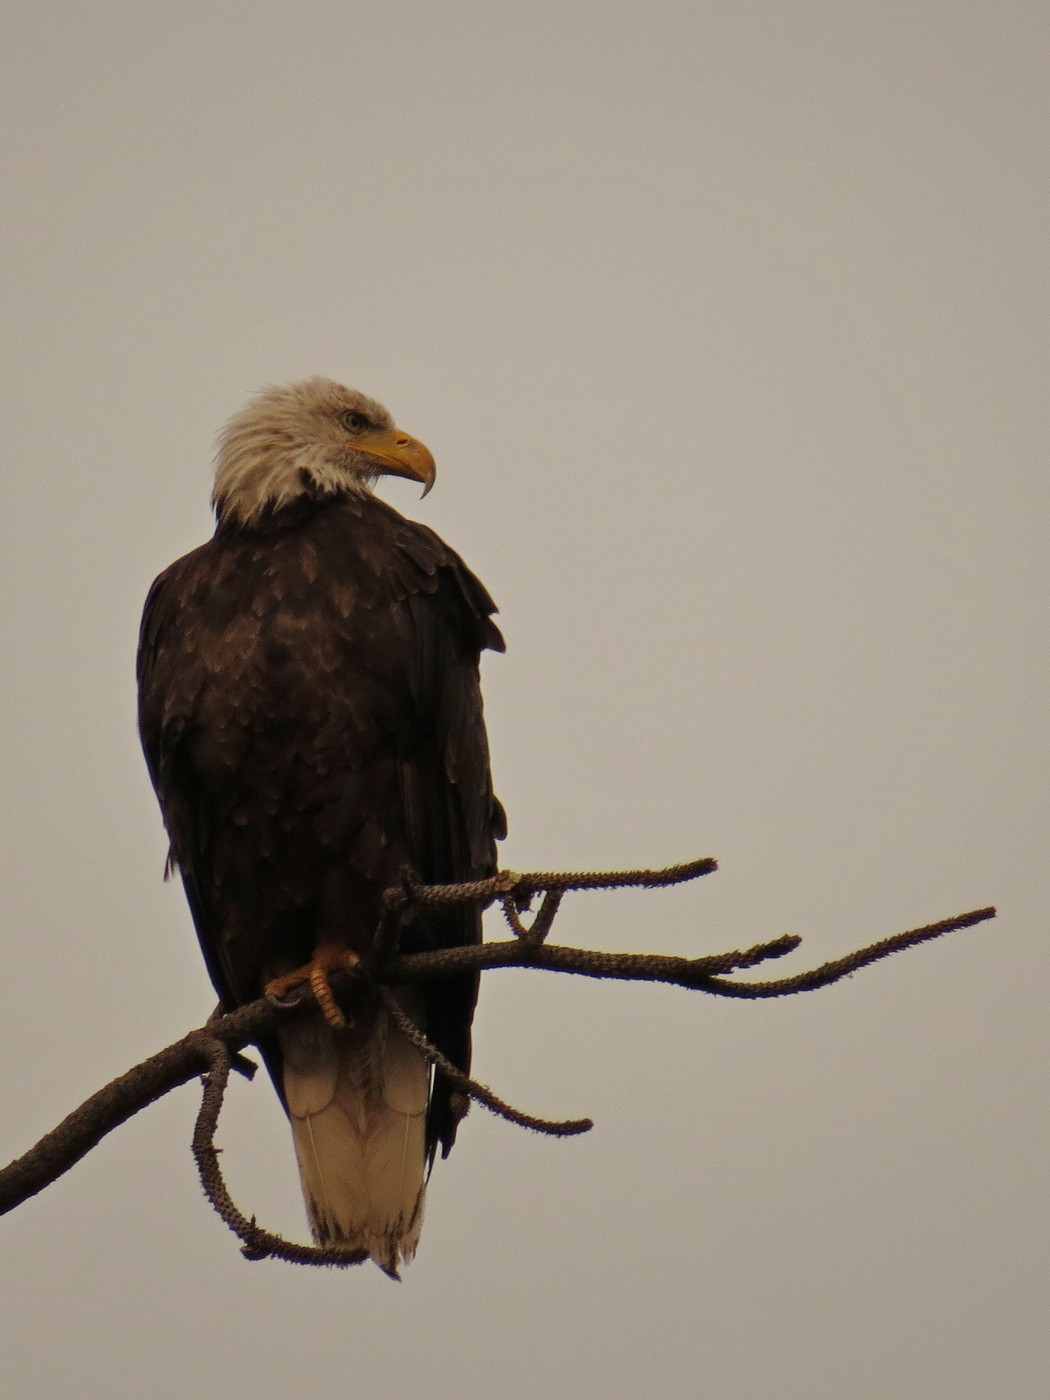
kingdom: Animalia
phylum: Chordata
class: Aves
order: Accipitriformes
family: Accipitridae
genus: Haliaeetus
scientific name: Haliaeetus leucocephalus
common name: Bald eagle
